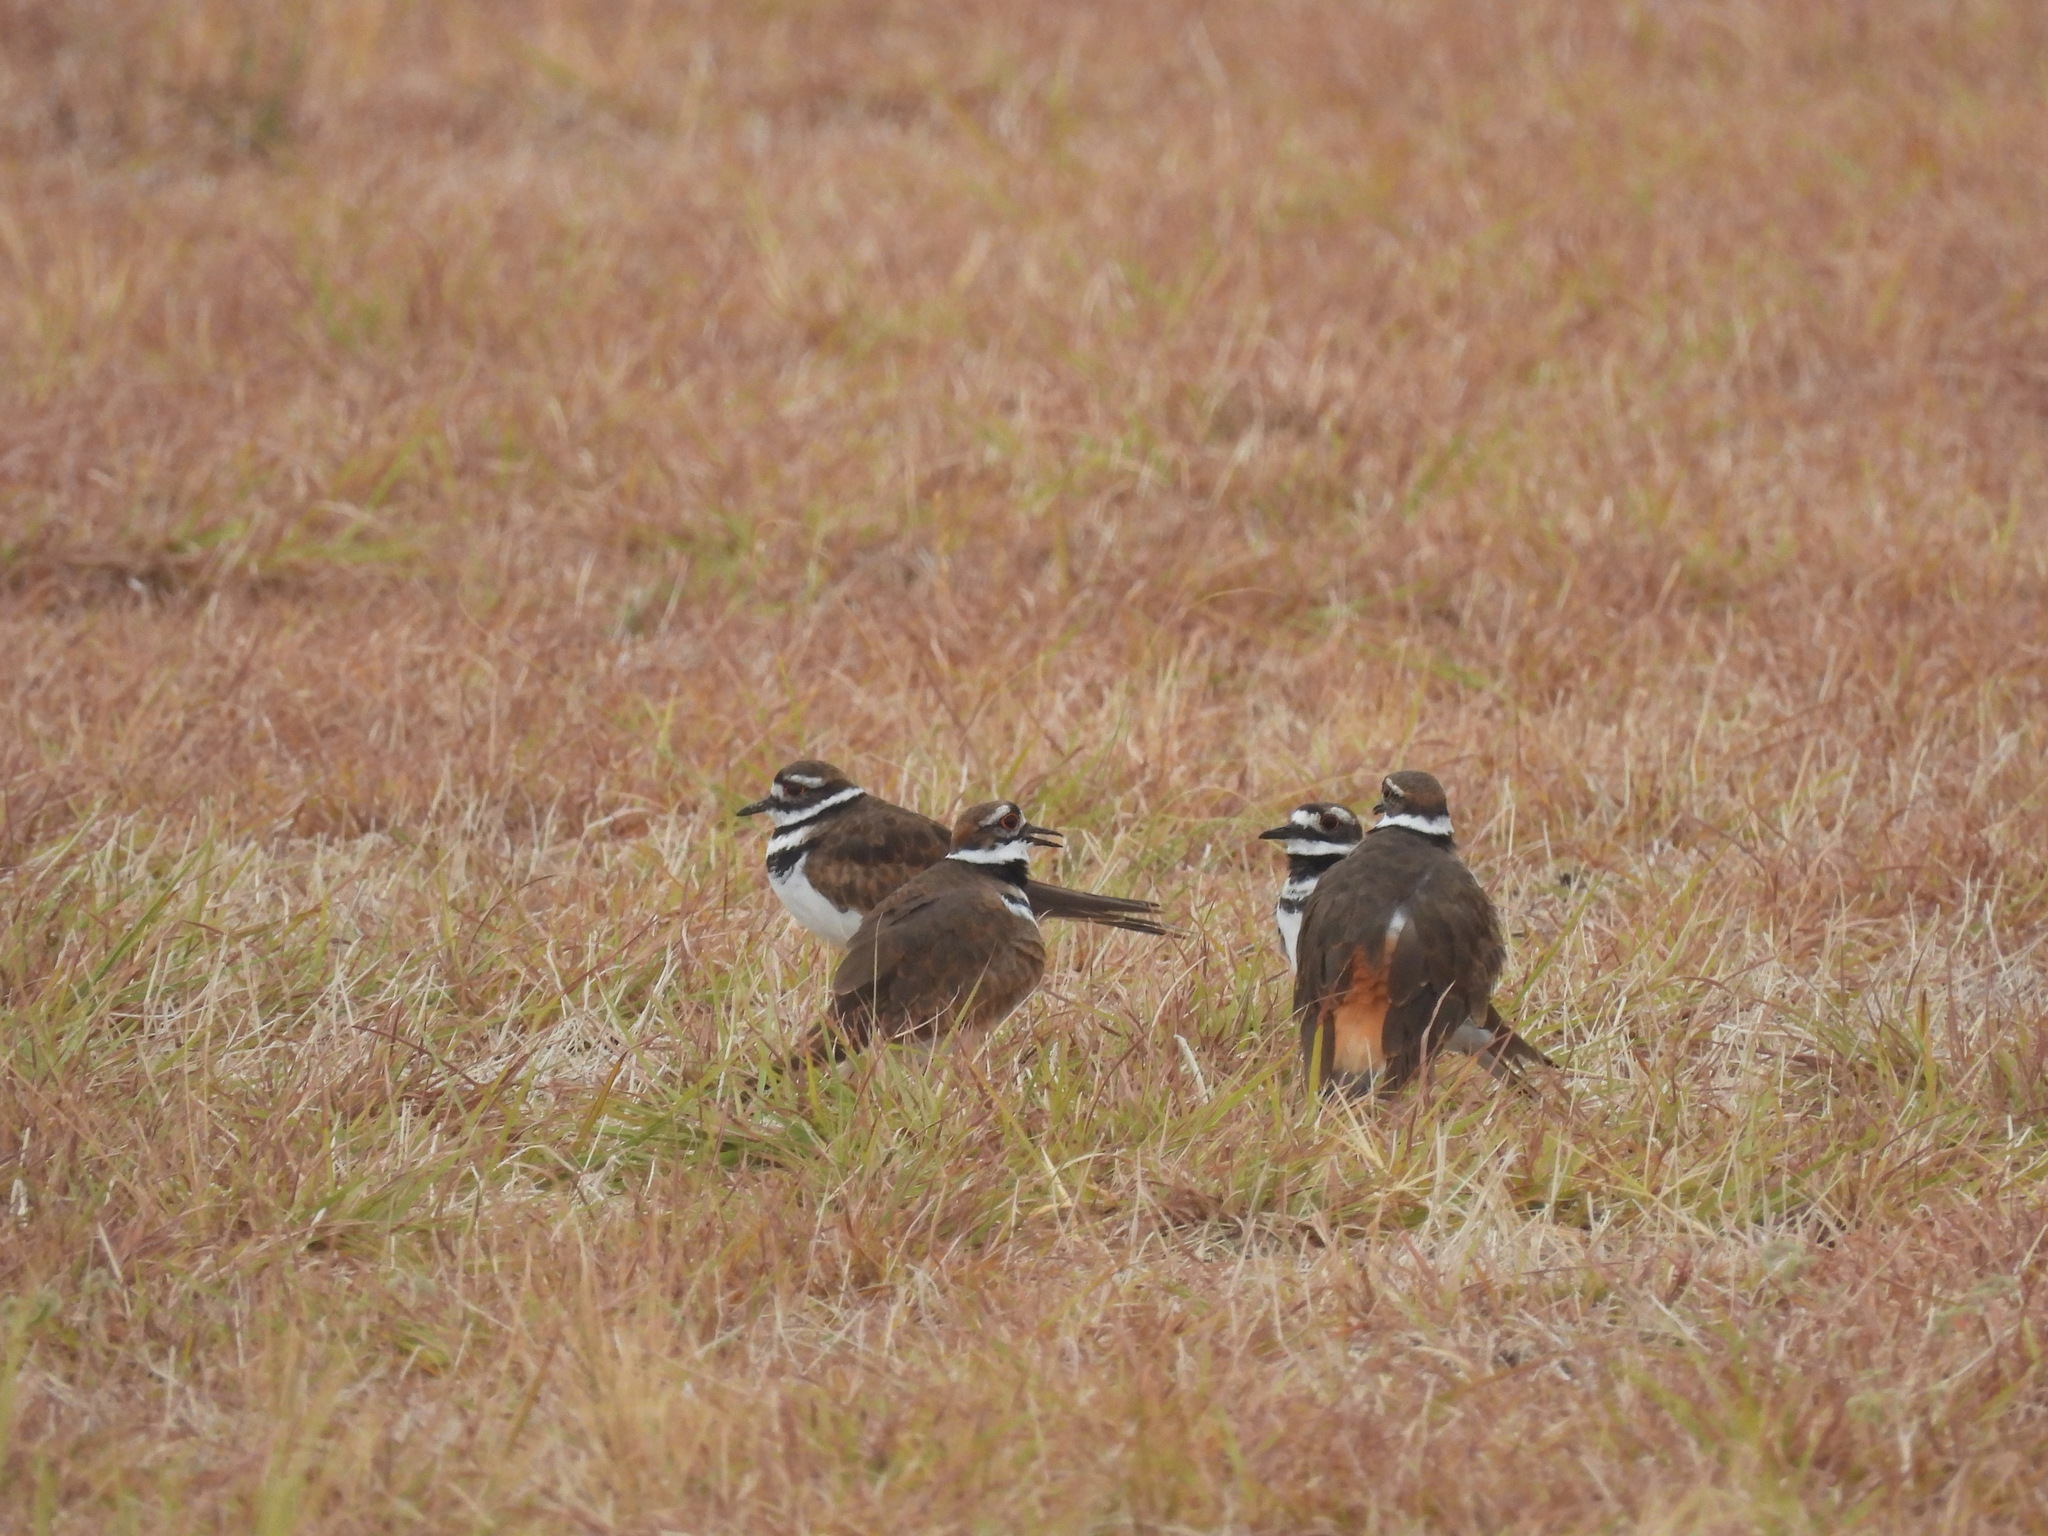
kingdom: Animalia
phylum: Chordata
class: Aves
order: Charadriiformes
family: Charadriidae
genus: Charadrius
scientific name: Charadrius vociferus
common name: Killdeer
